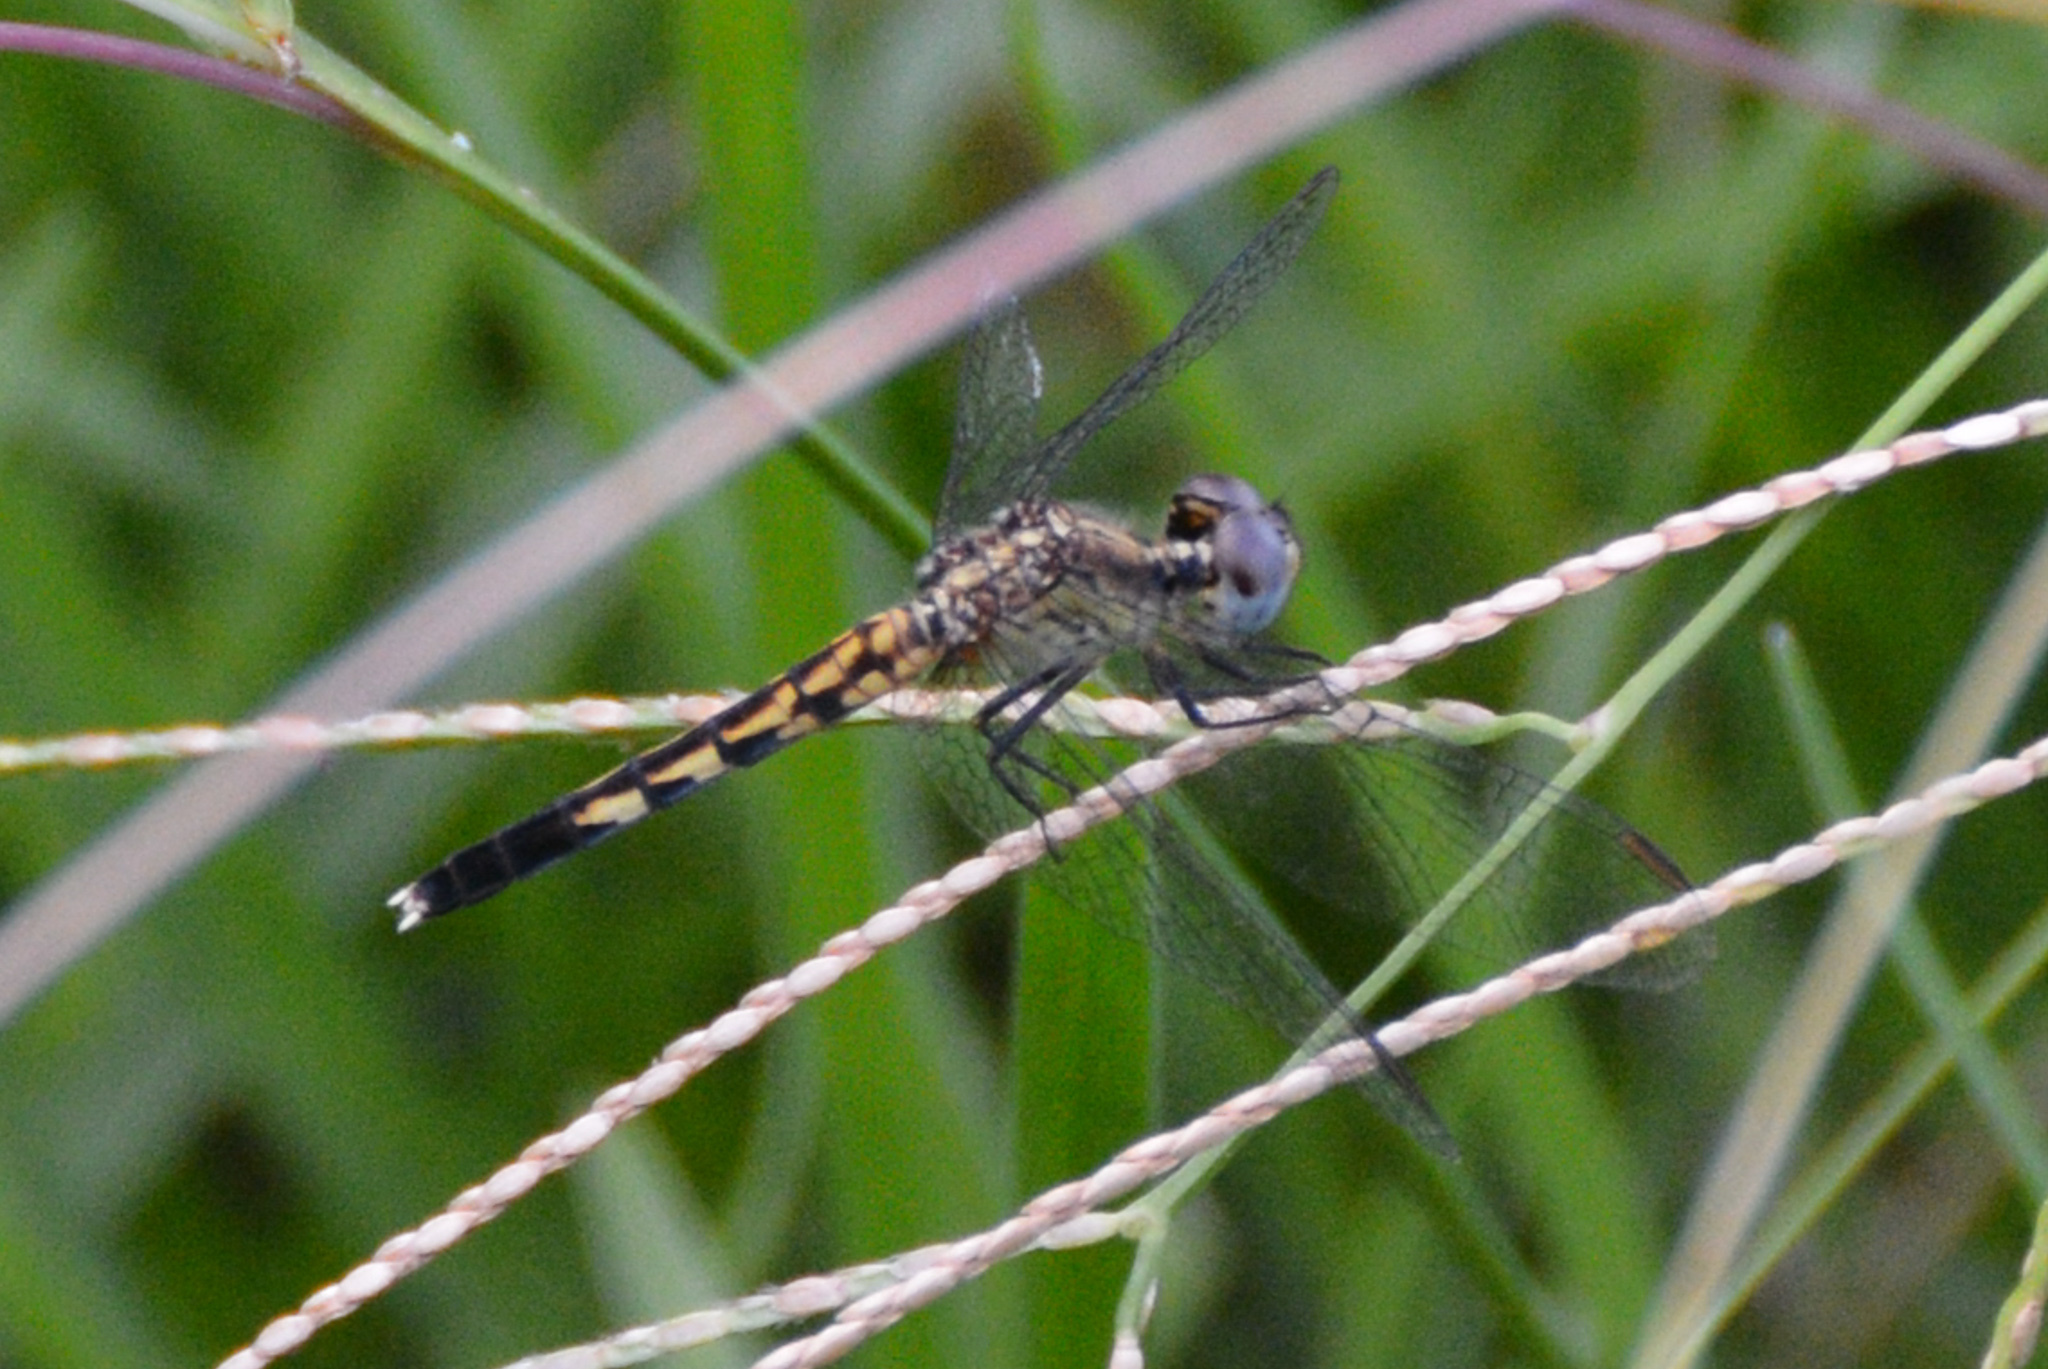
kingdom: Animalia
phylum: Arthropoda
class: Insecta
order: Odonata
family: Libellulidae
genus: Erythrodiplax
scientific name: Erythrodiplax minuscula
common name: Little blue dragonlet
